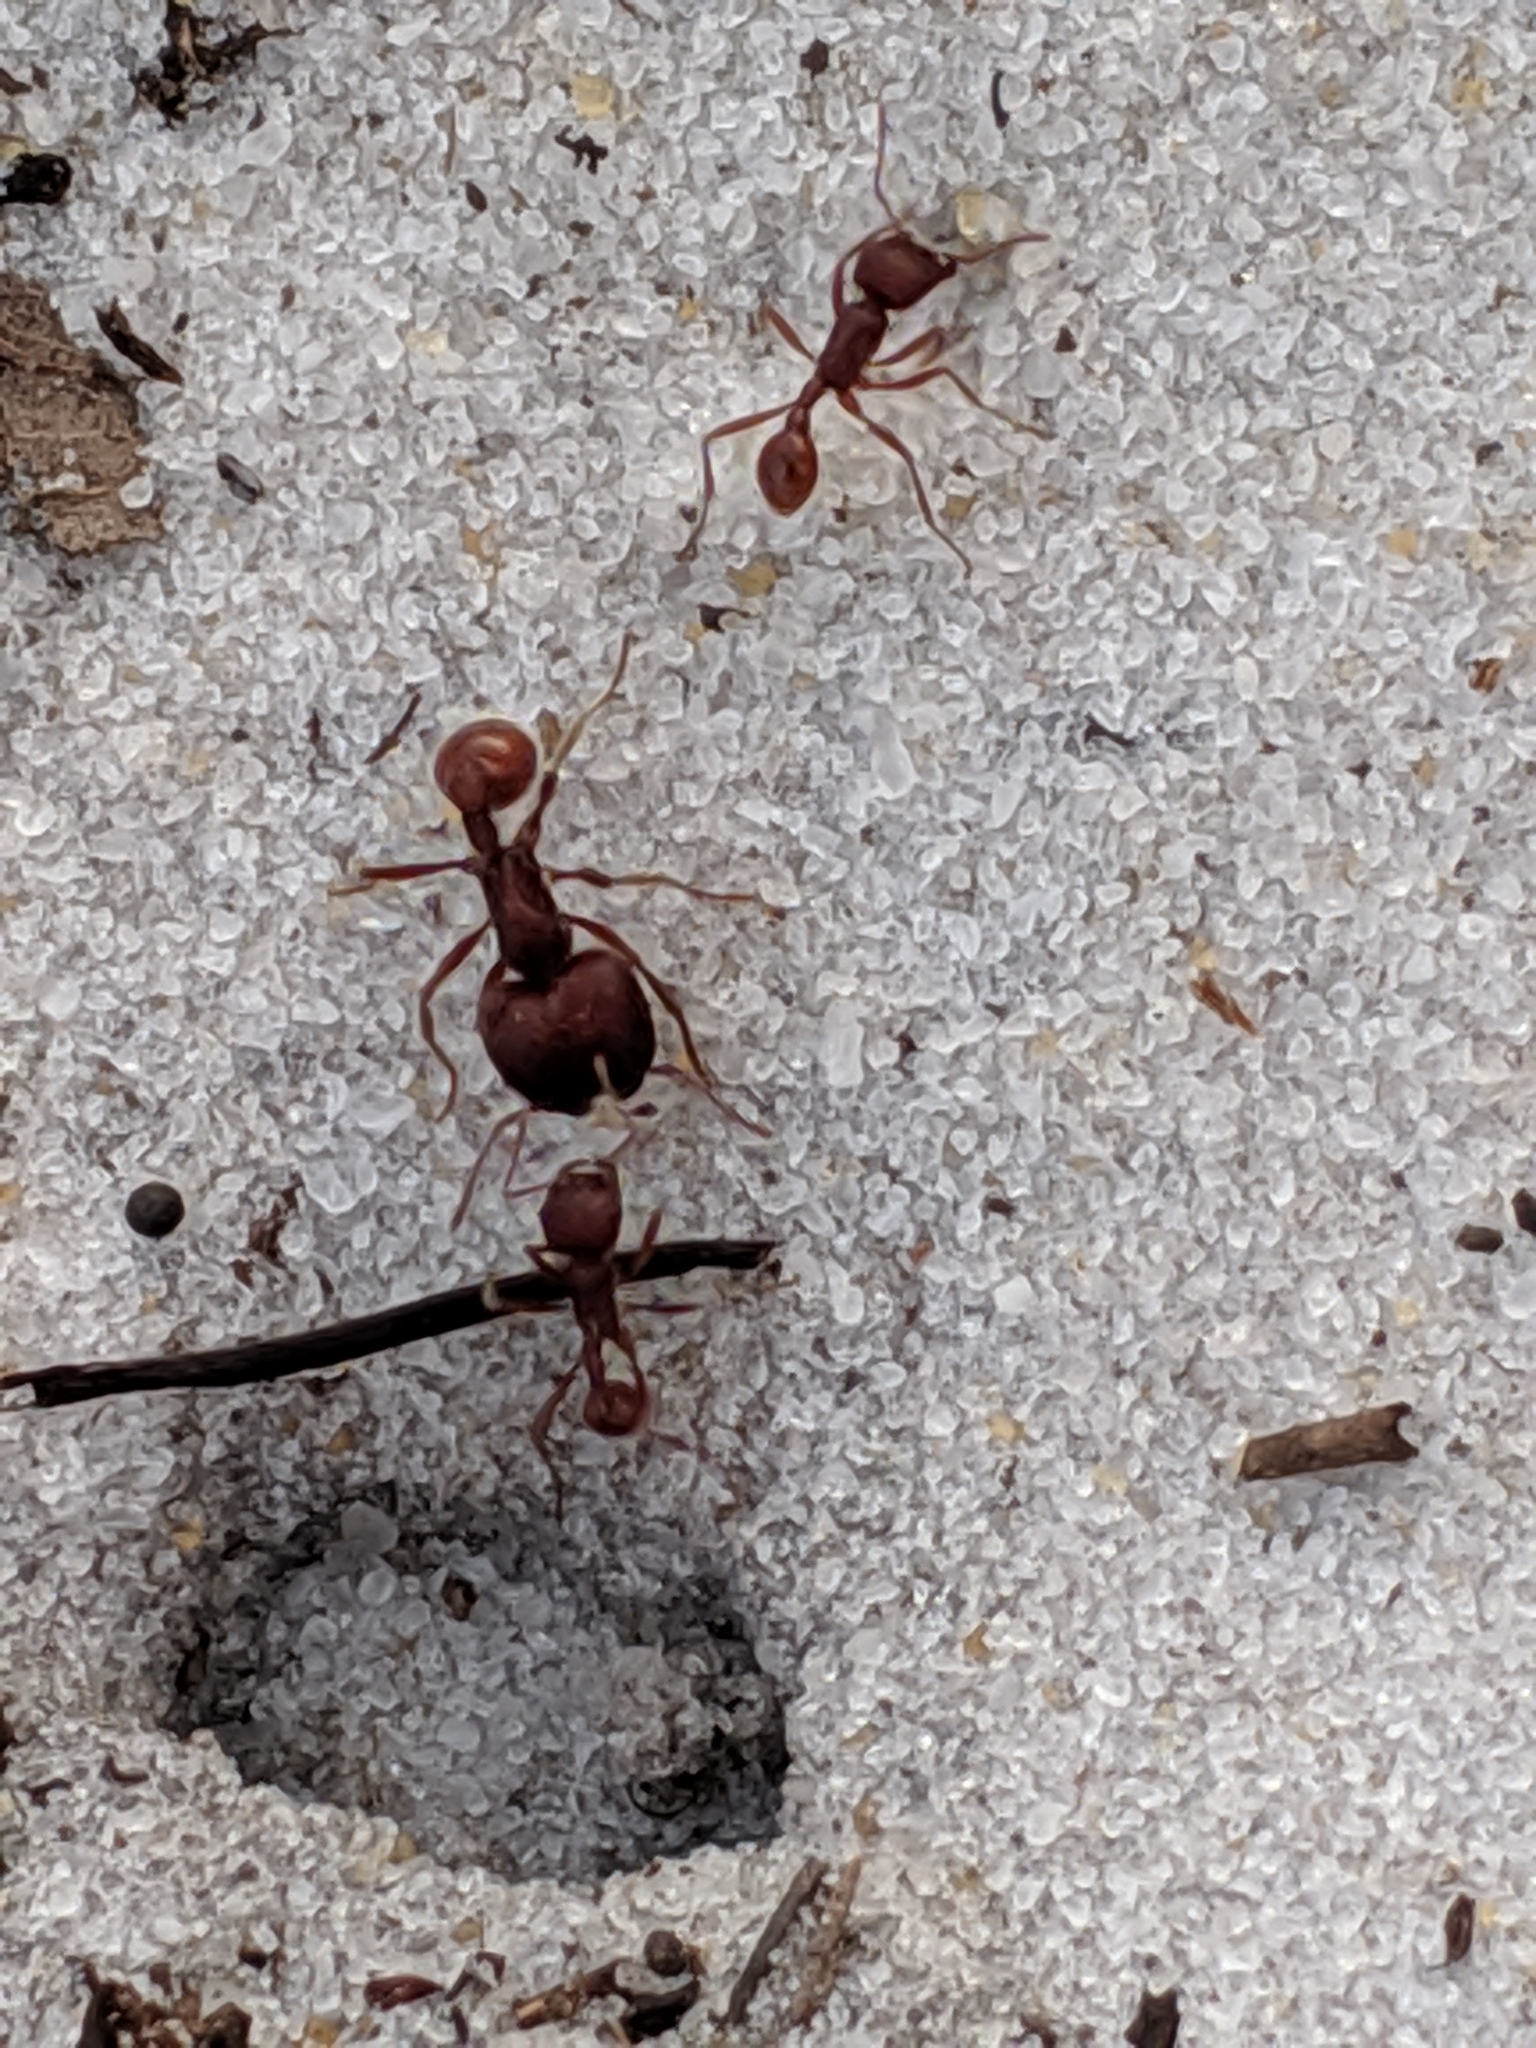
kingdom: Animalia
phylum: Arthropoda
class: Insecta
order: Hymenoptera
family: Formicidae
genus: Pogonomyrmex
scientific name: Pogonomyrmex badius
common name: Florida harvester ant
